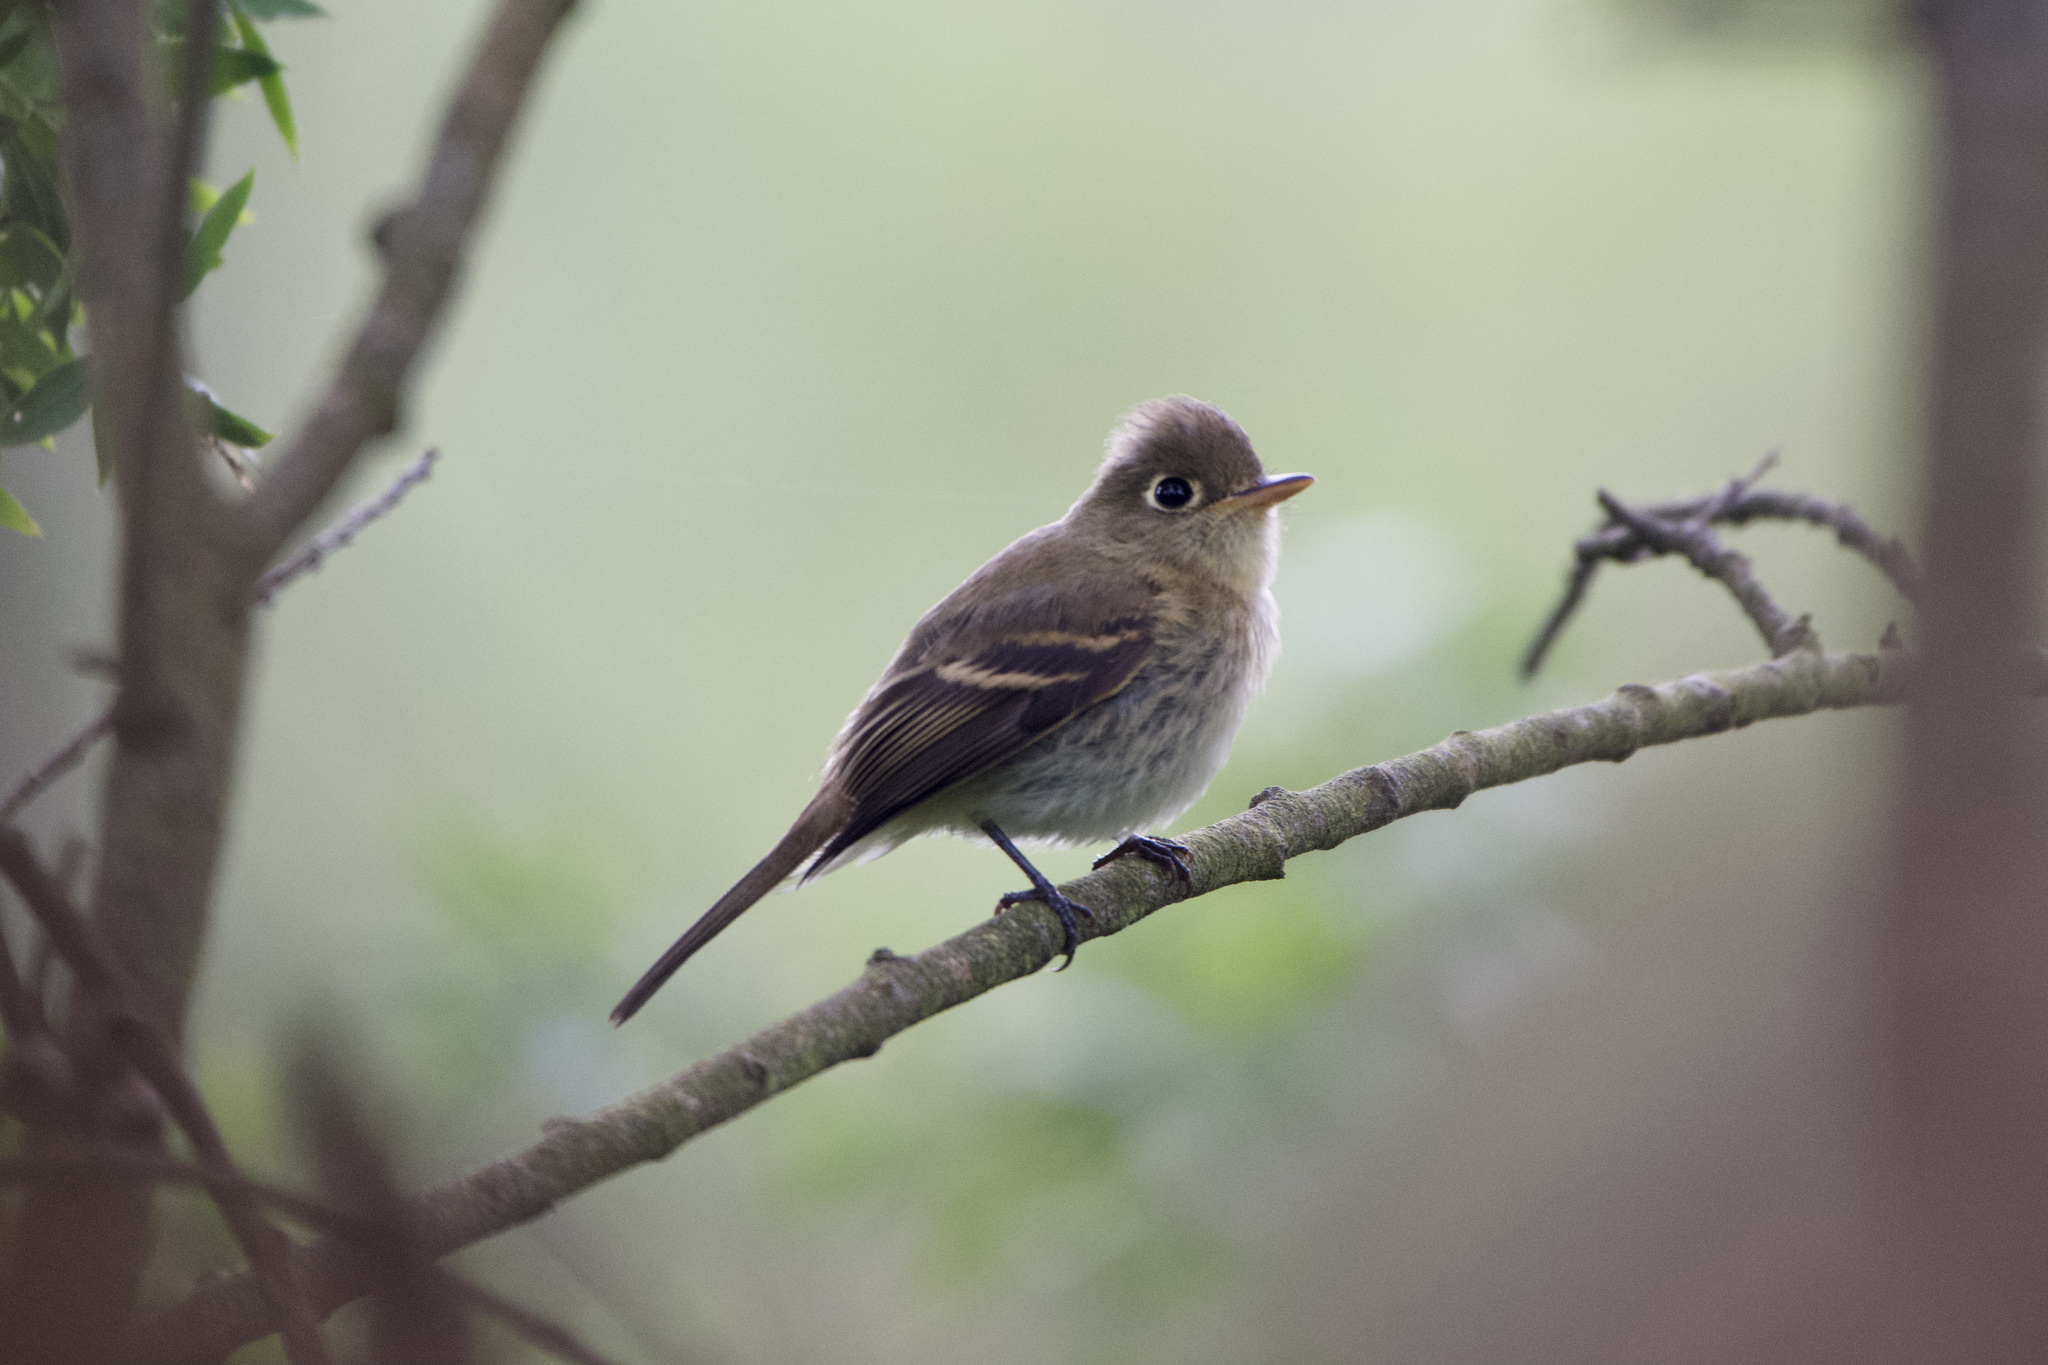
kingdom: Animalia
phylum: Chordata
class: Aves
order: Passeriformes
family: Tyrannidae
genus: Empidonax
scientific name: Empidonax difficilis
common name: Pacific-slope flycatcher
